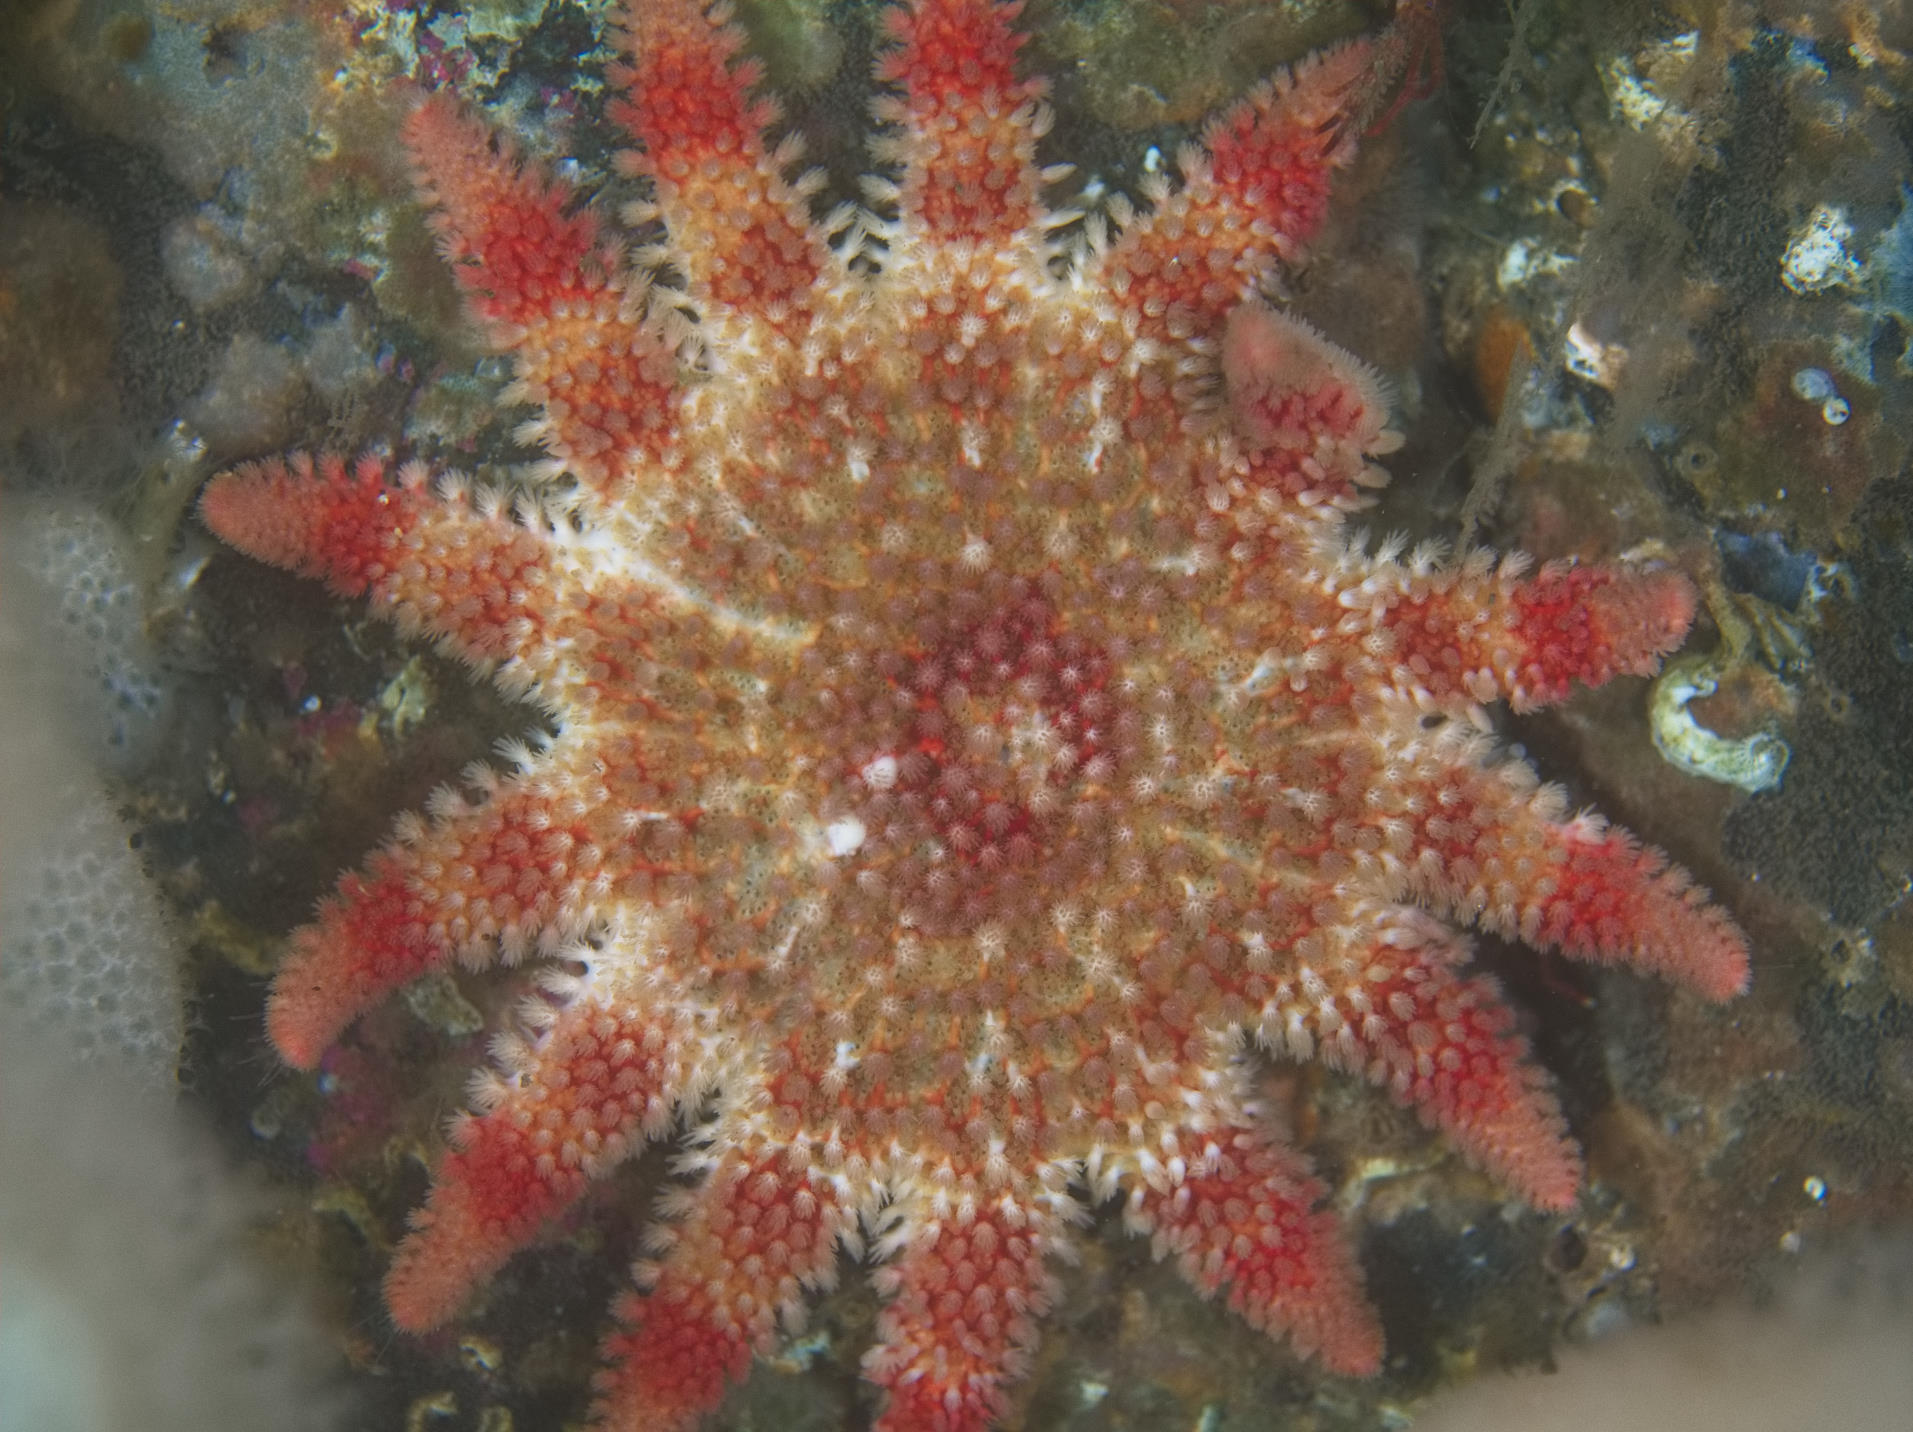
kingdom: Animalia
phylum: Echinodermata
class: Asteroidea
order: Valvatida
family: Solasteridae
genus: Crossaster
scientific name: Crossaster papposus
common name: Common sun star
